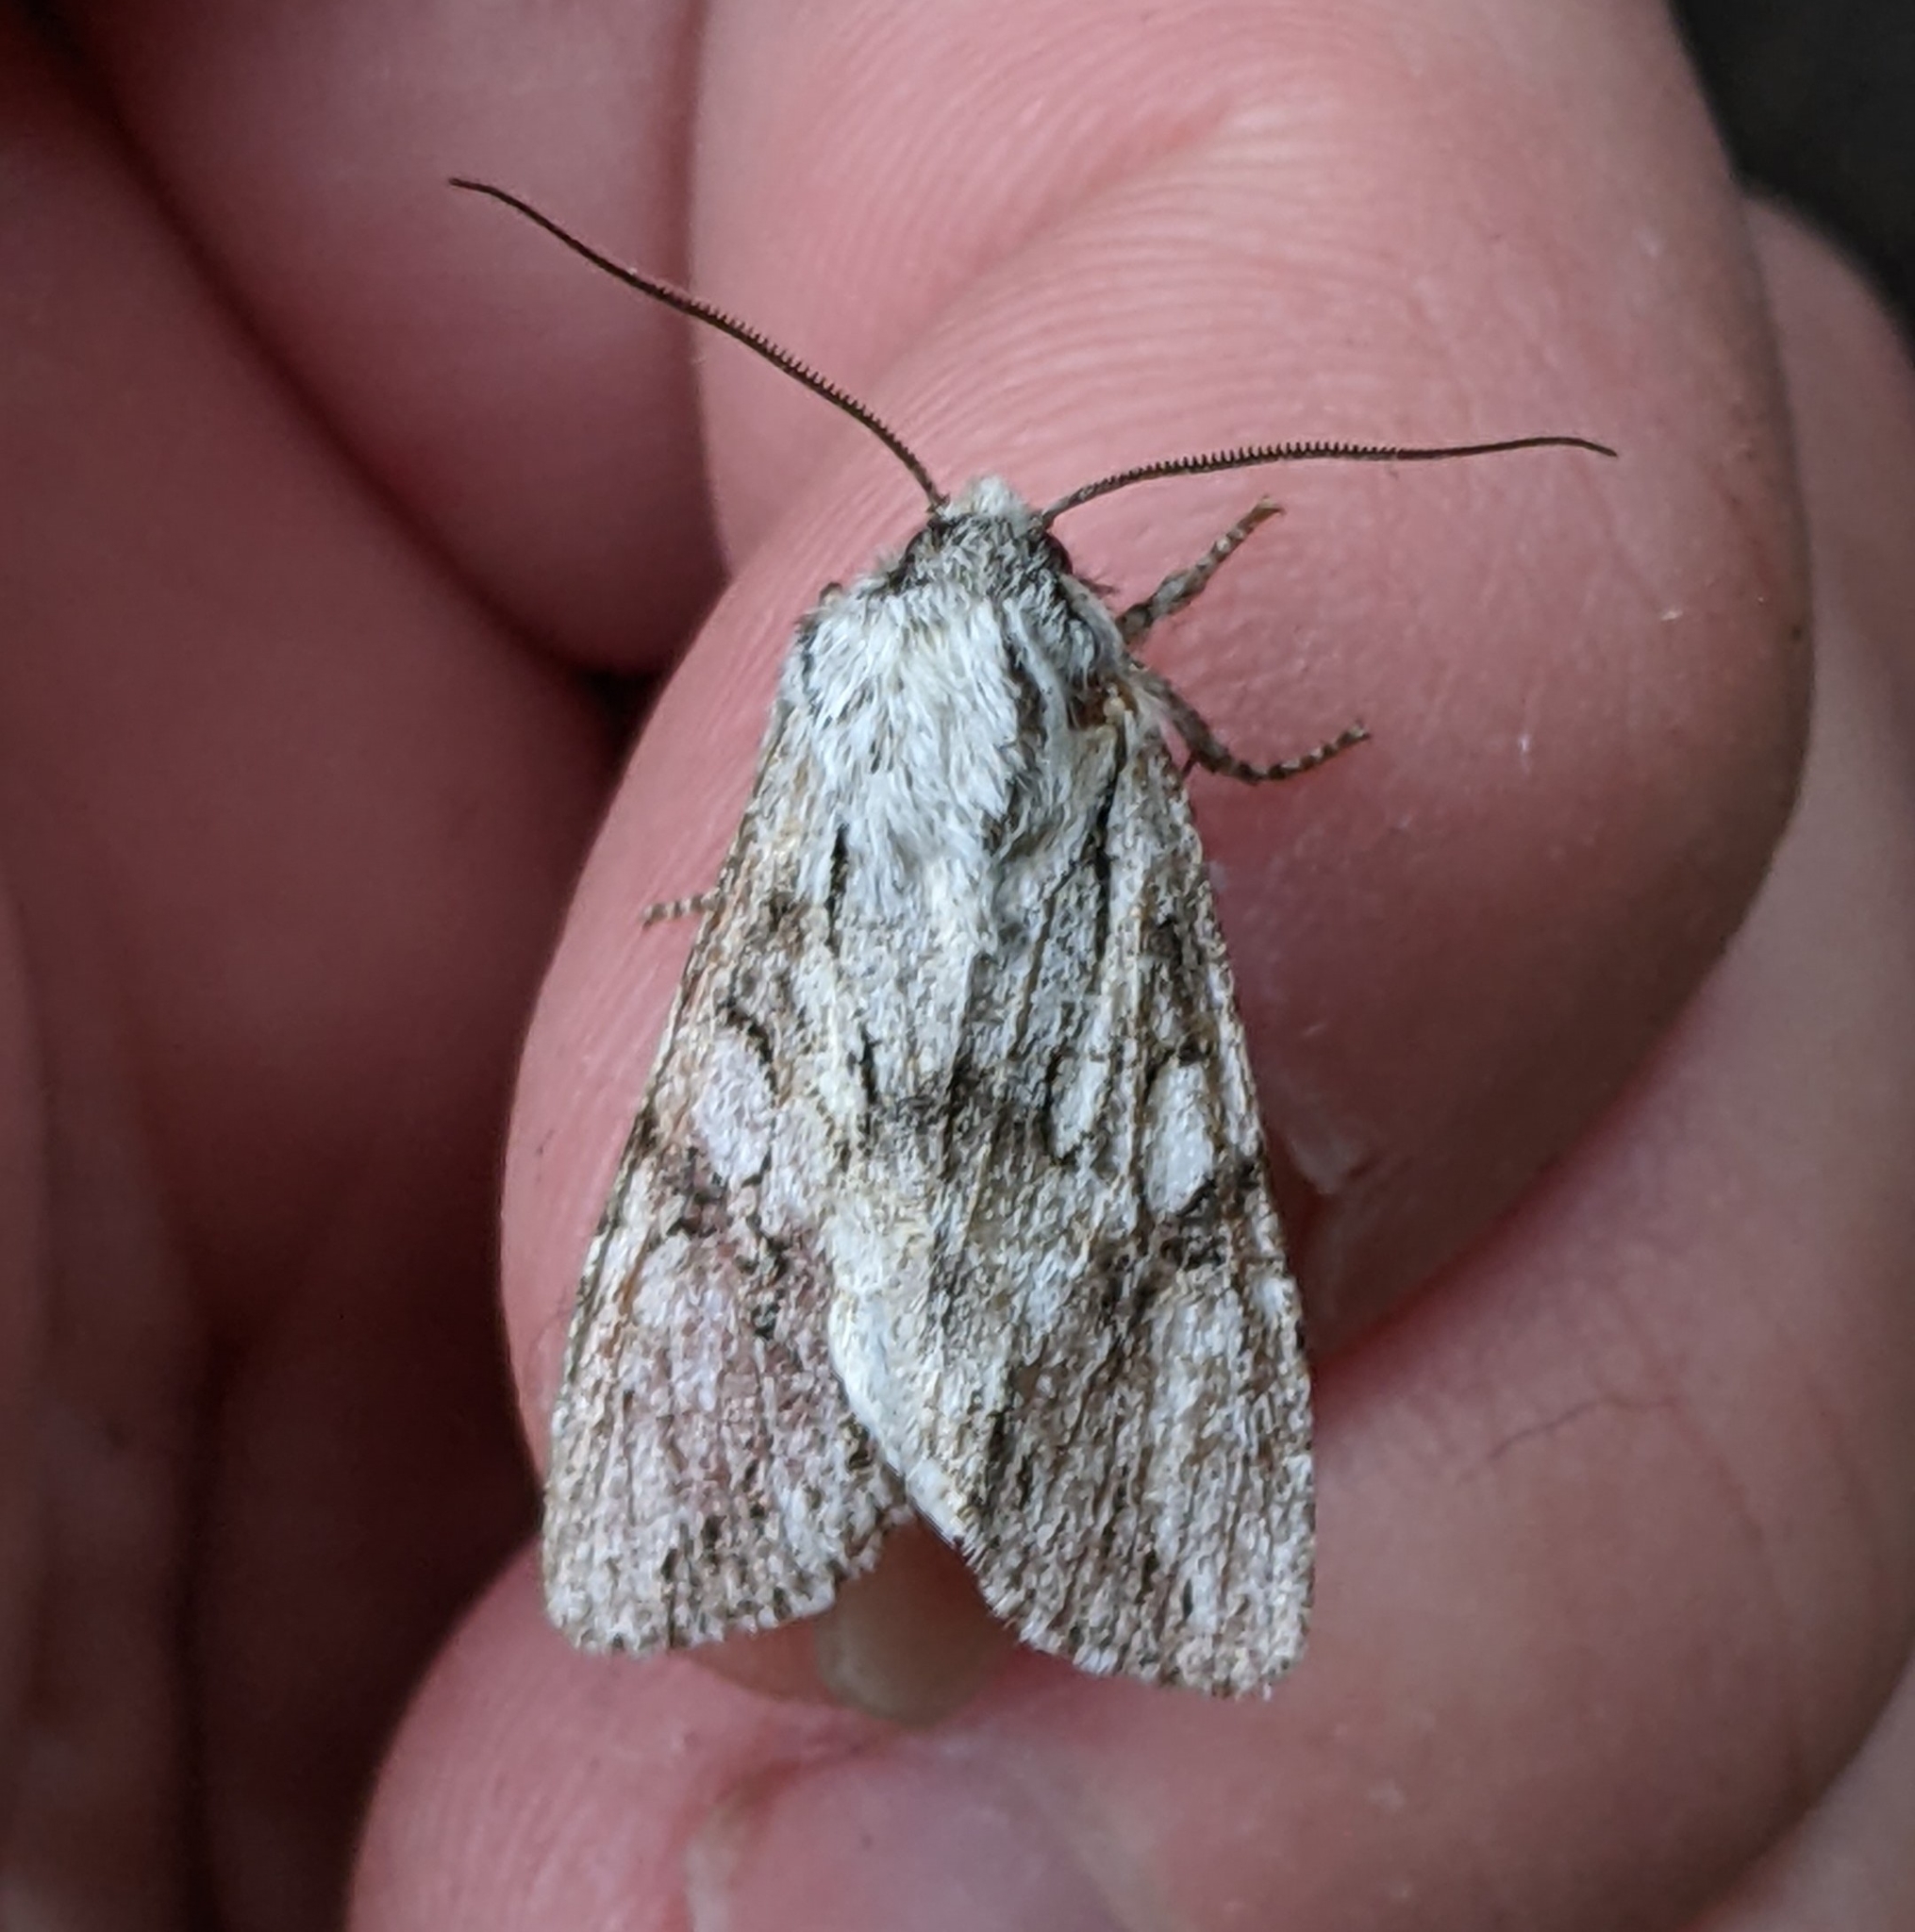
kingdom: Animalia
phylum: Arthropoda
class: Insecta
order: Lepidoptera
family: Noctuidae
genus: Egira
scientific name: Egira simplex
